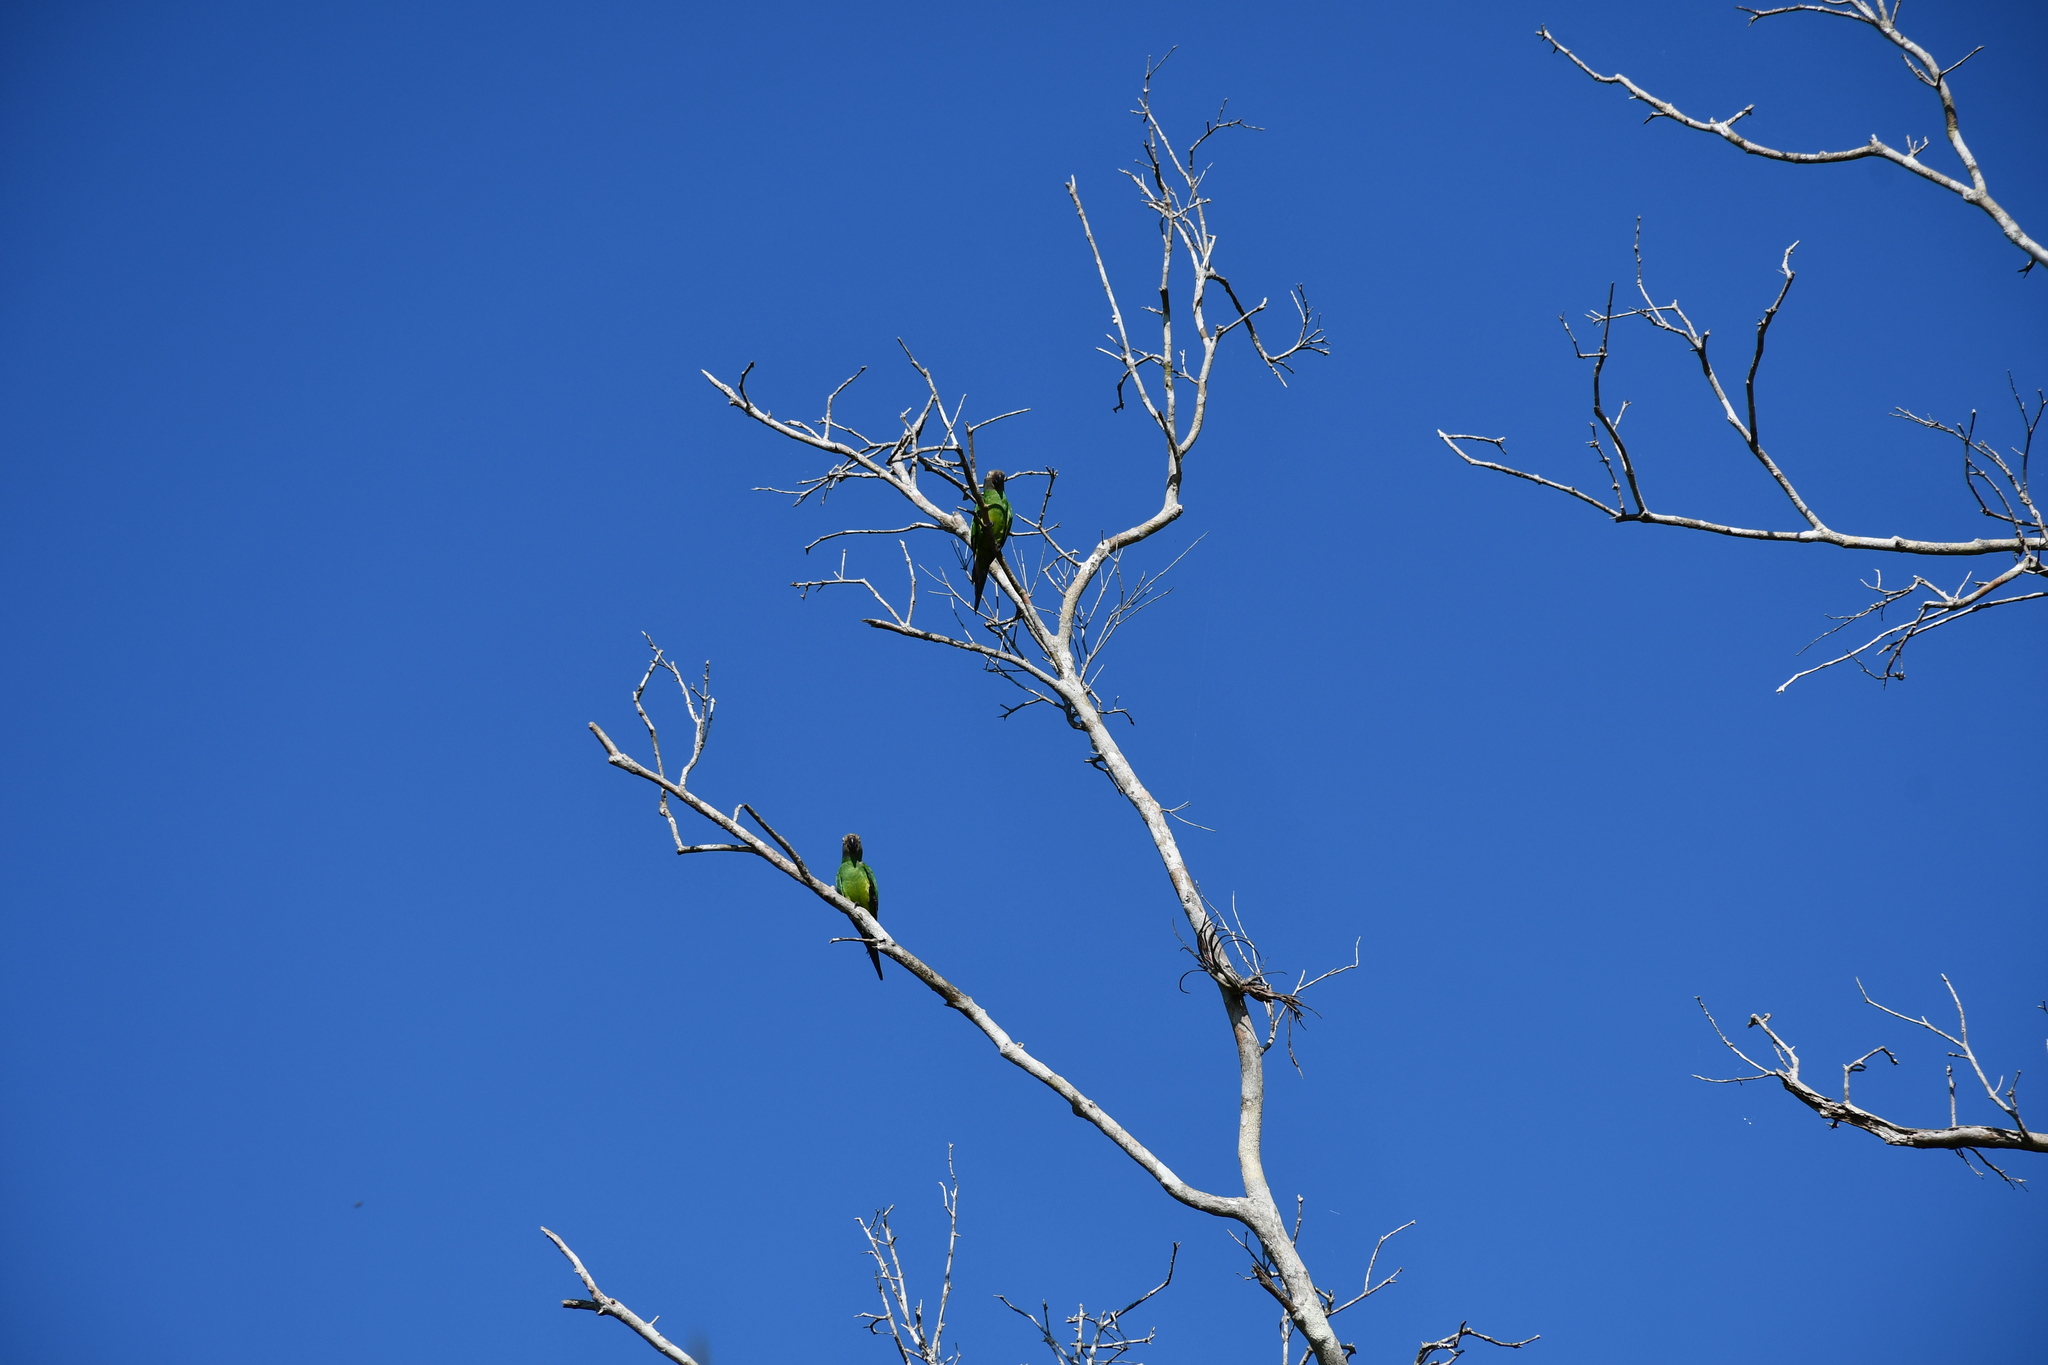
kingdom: Animalia
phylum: Chordata
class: Aves
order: Psittaciformes
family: Psittacidae
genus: Aratinga
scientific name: Aratinga weddellii
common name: Dusky-headed parakeet
